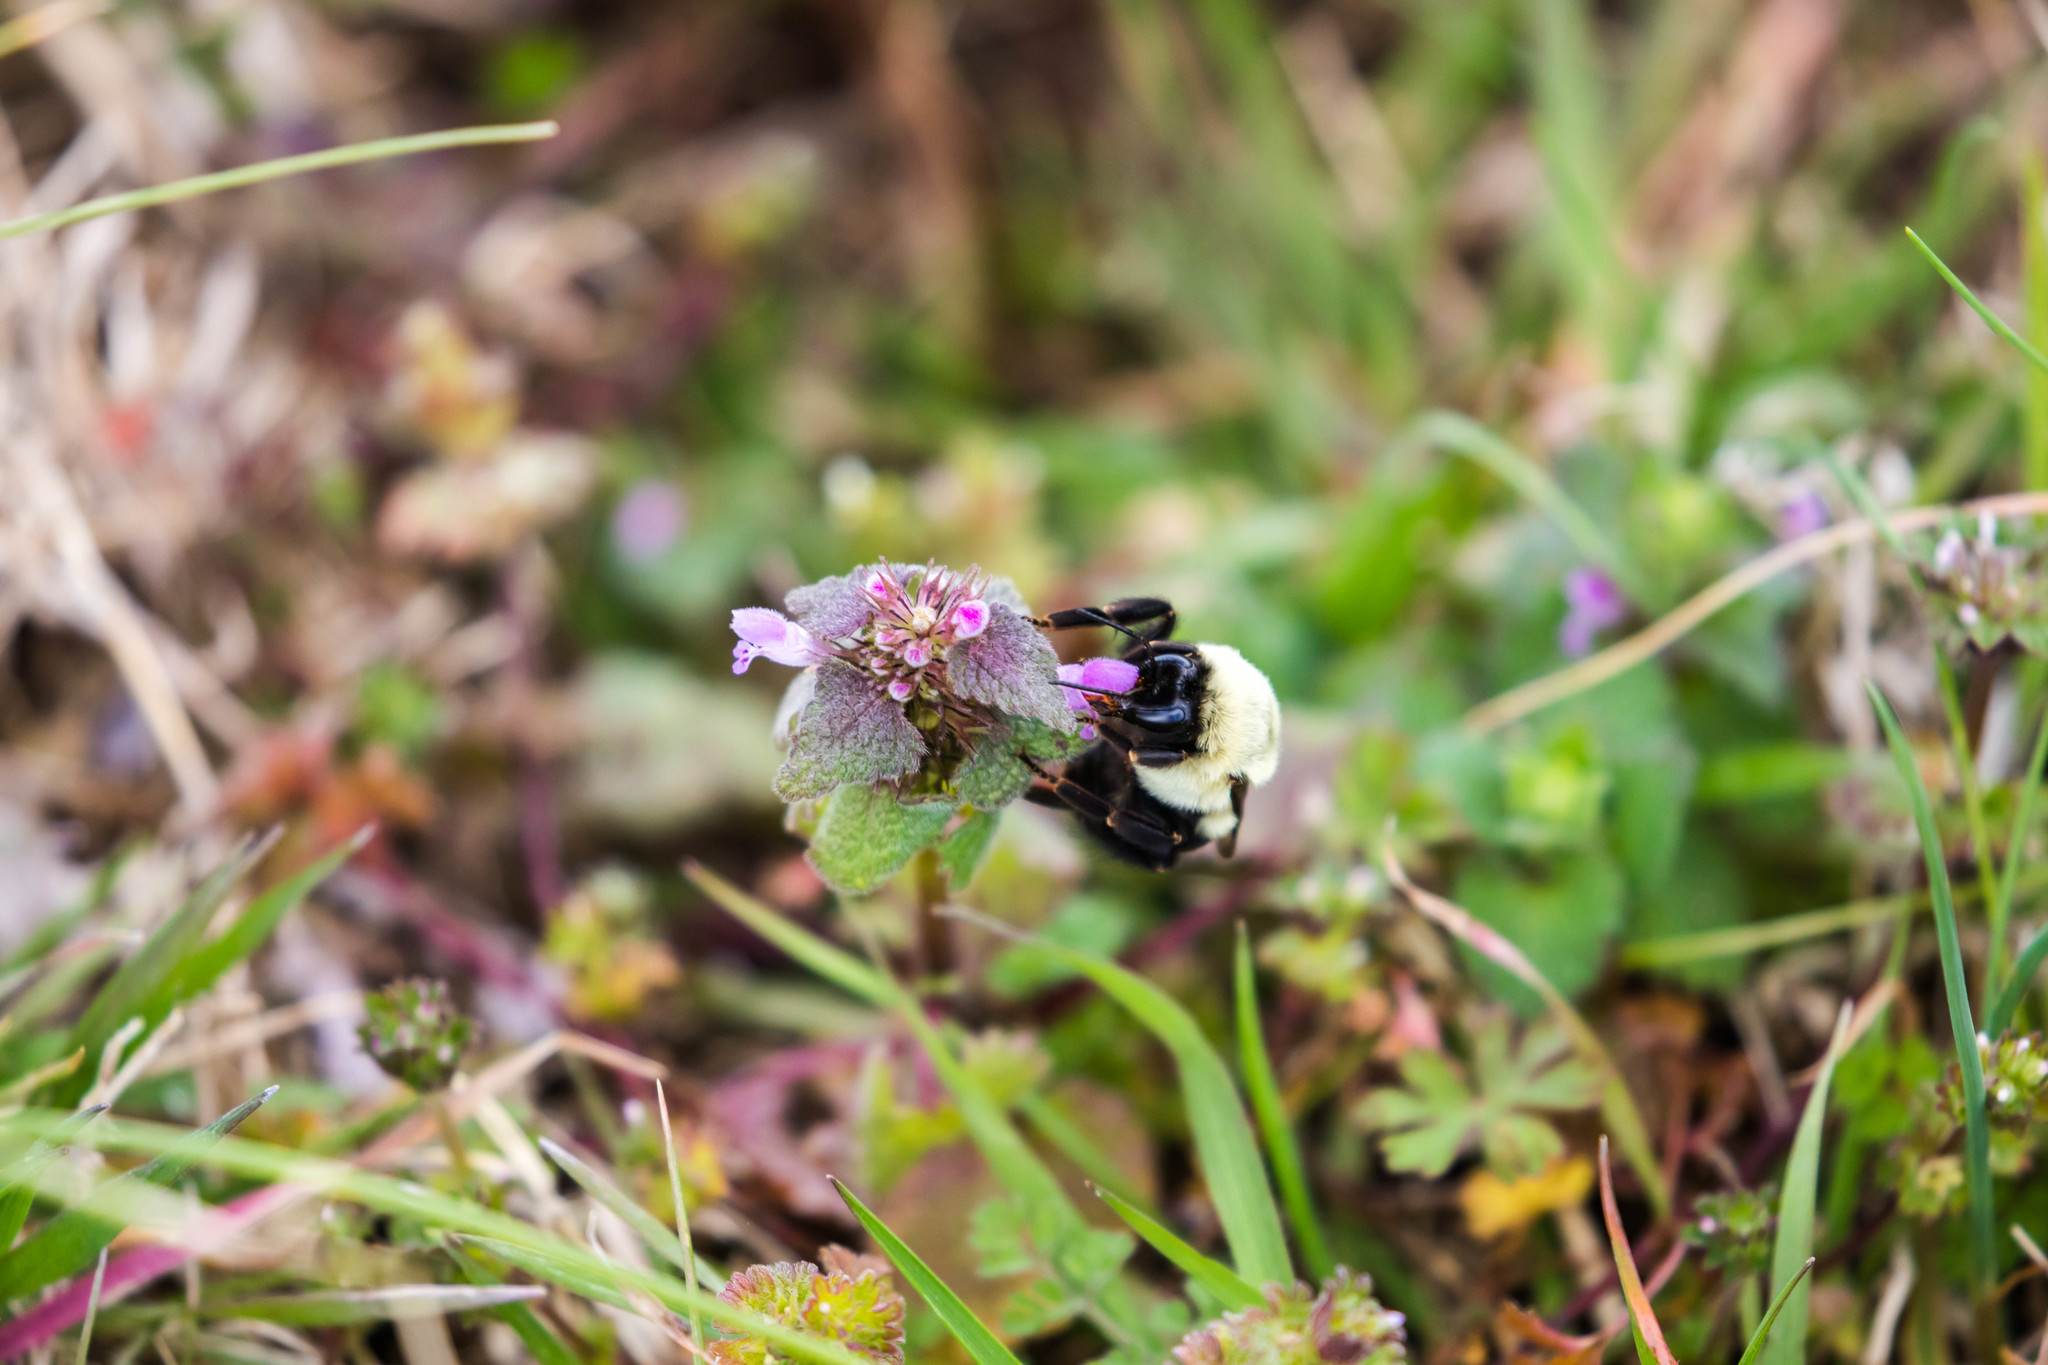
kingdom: Animalia
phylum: Arthropoda
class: Insecta
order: Hymenoptera
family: Apidae
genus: Bombus
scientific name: Bombus impatiens
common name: Common eastern bumble bee
